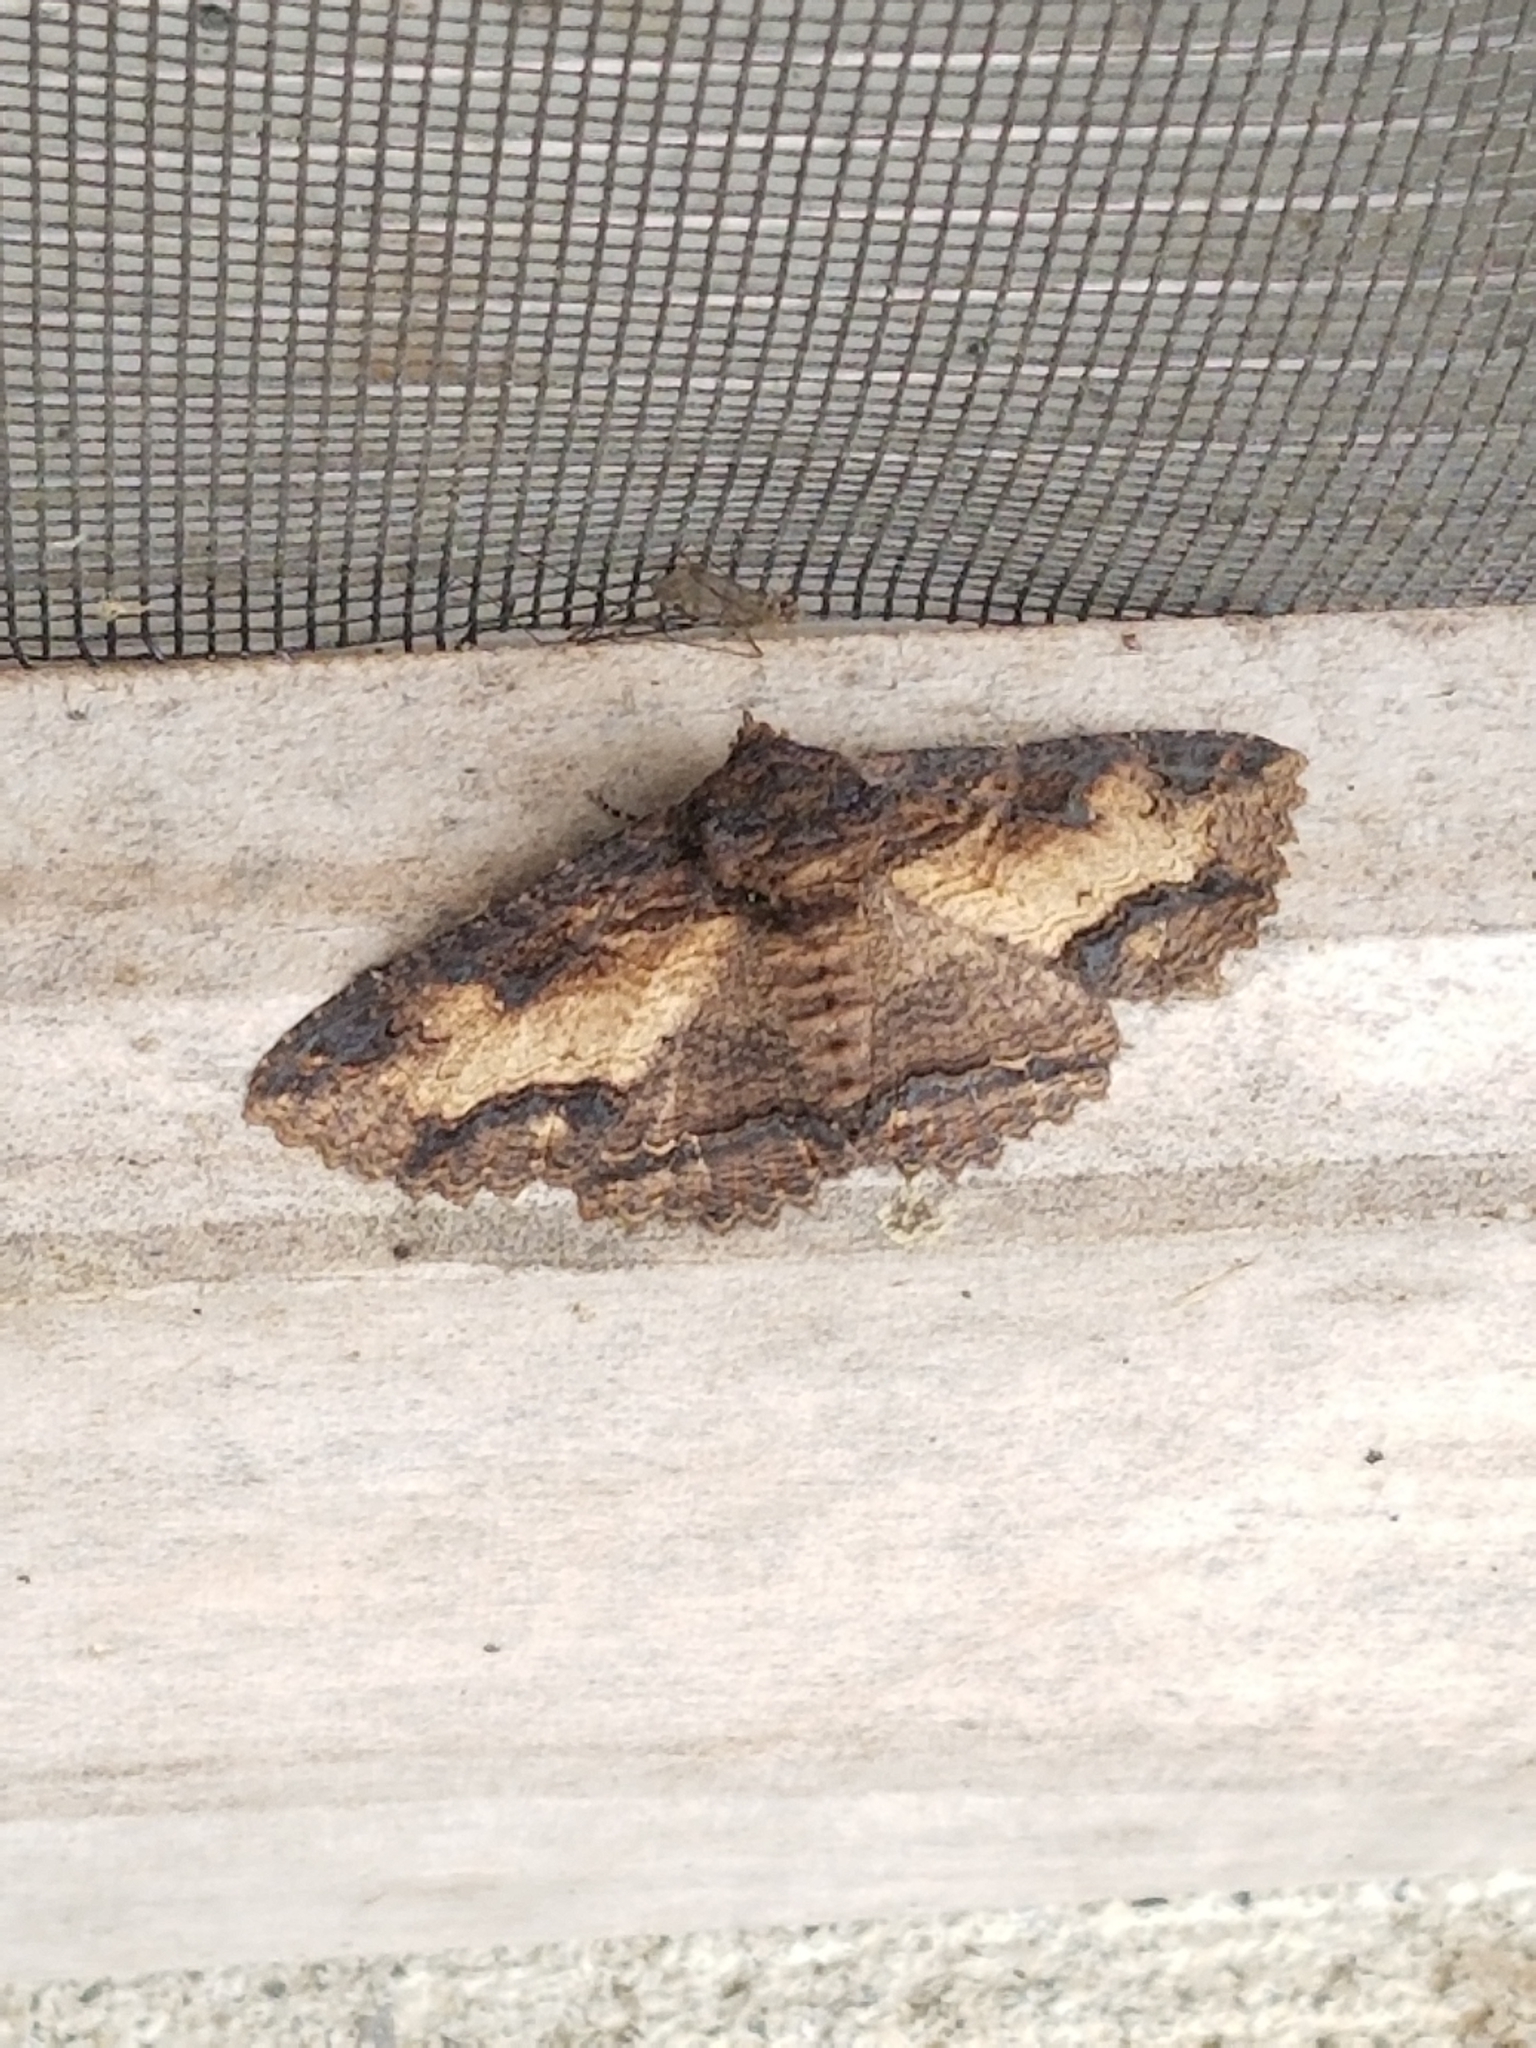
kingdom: Animalia
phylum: Arthropoda
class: Insecta
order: Lepidoptera
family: Erebidae
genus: Zale
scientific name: Zale lunata
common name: Lunate zale moth
